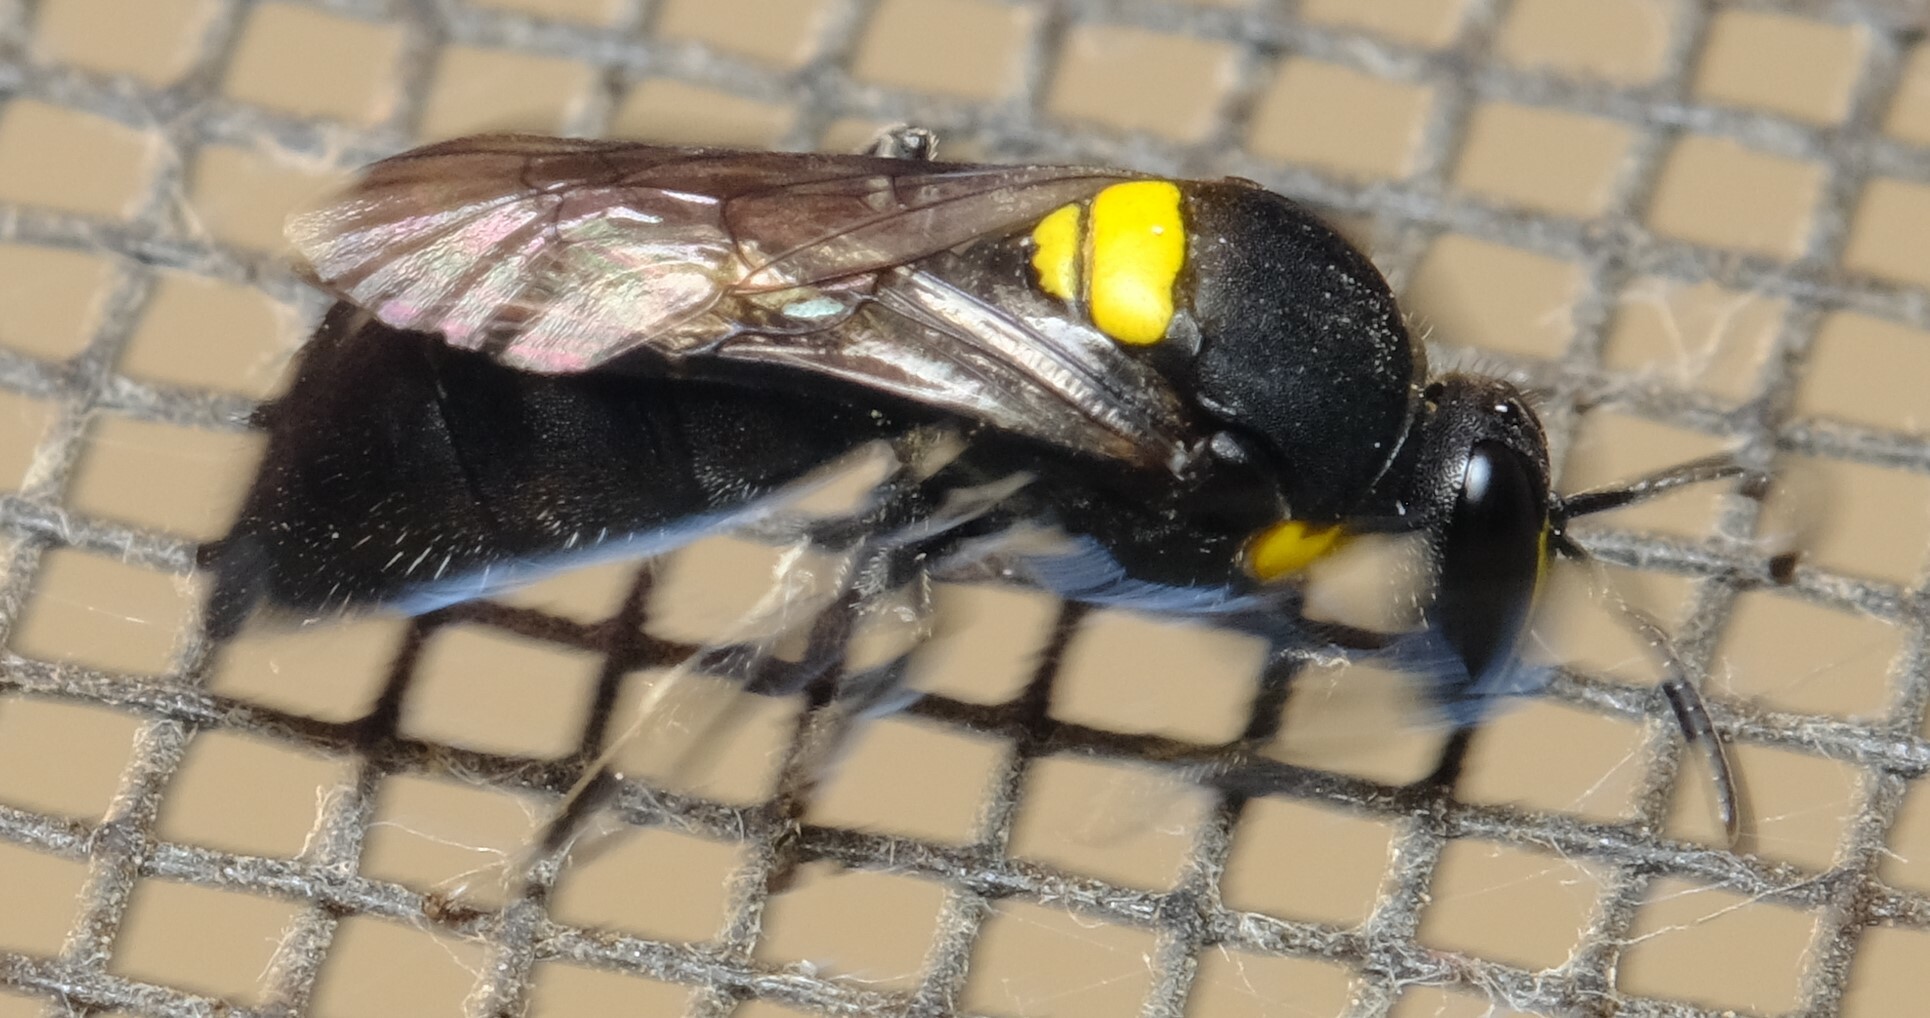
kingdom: Animalia
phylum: Arthropoda
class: Insecta
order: Hymenoptera
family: Colletidae
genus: Hylaeus
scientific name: Hylaeus
